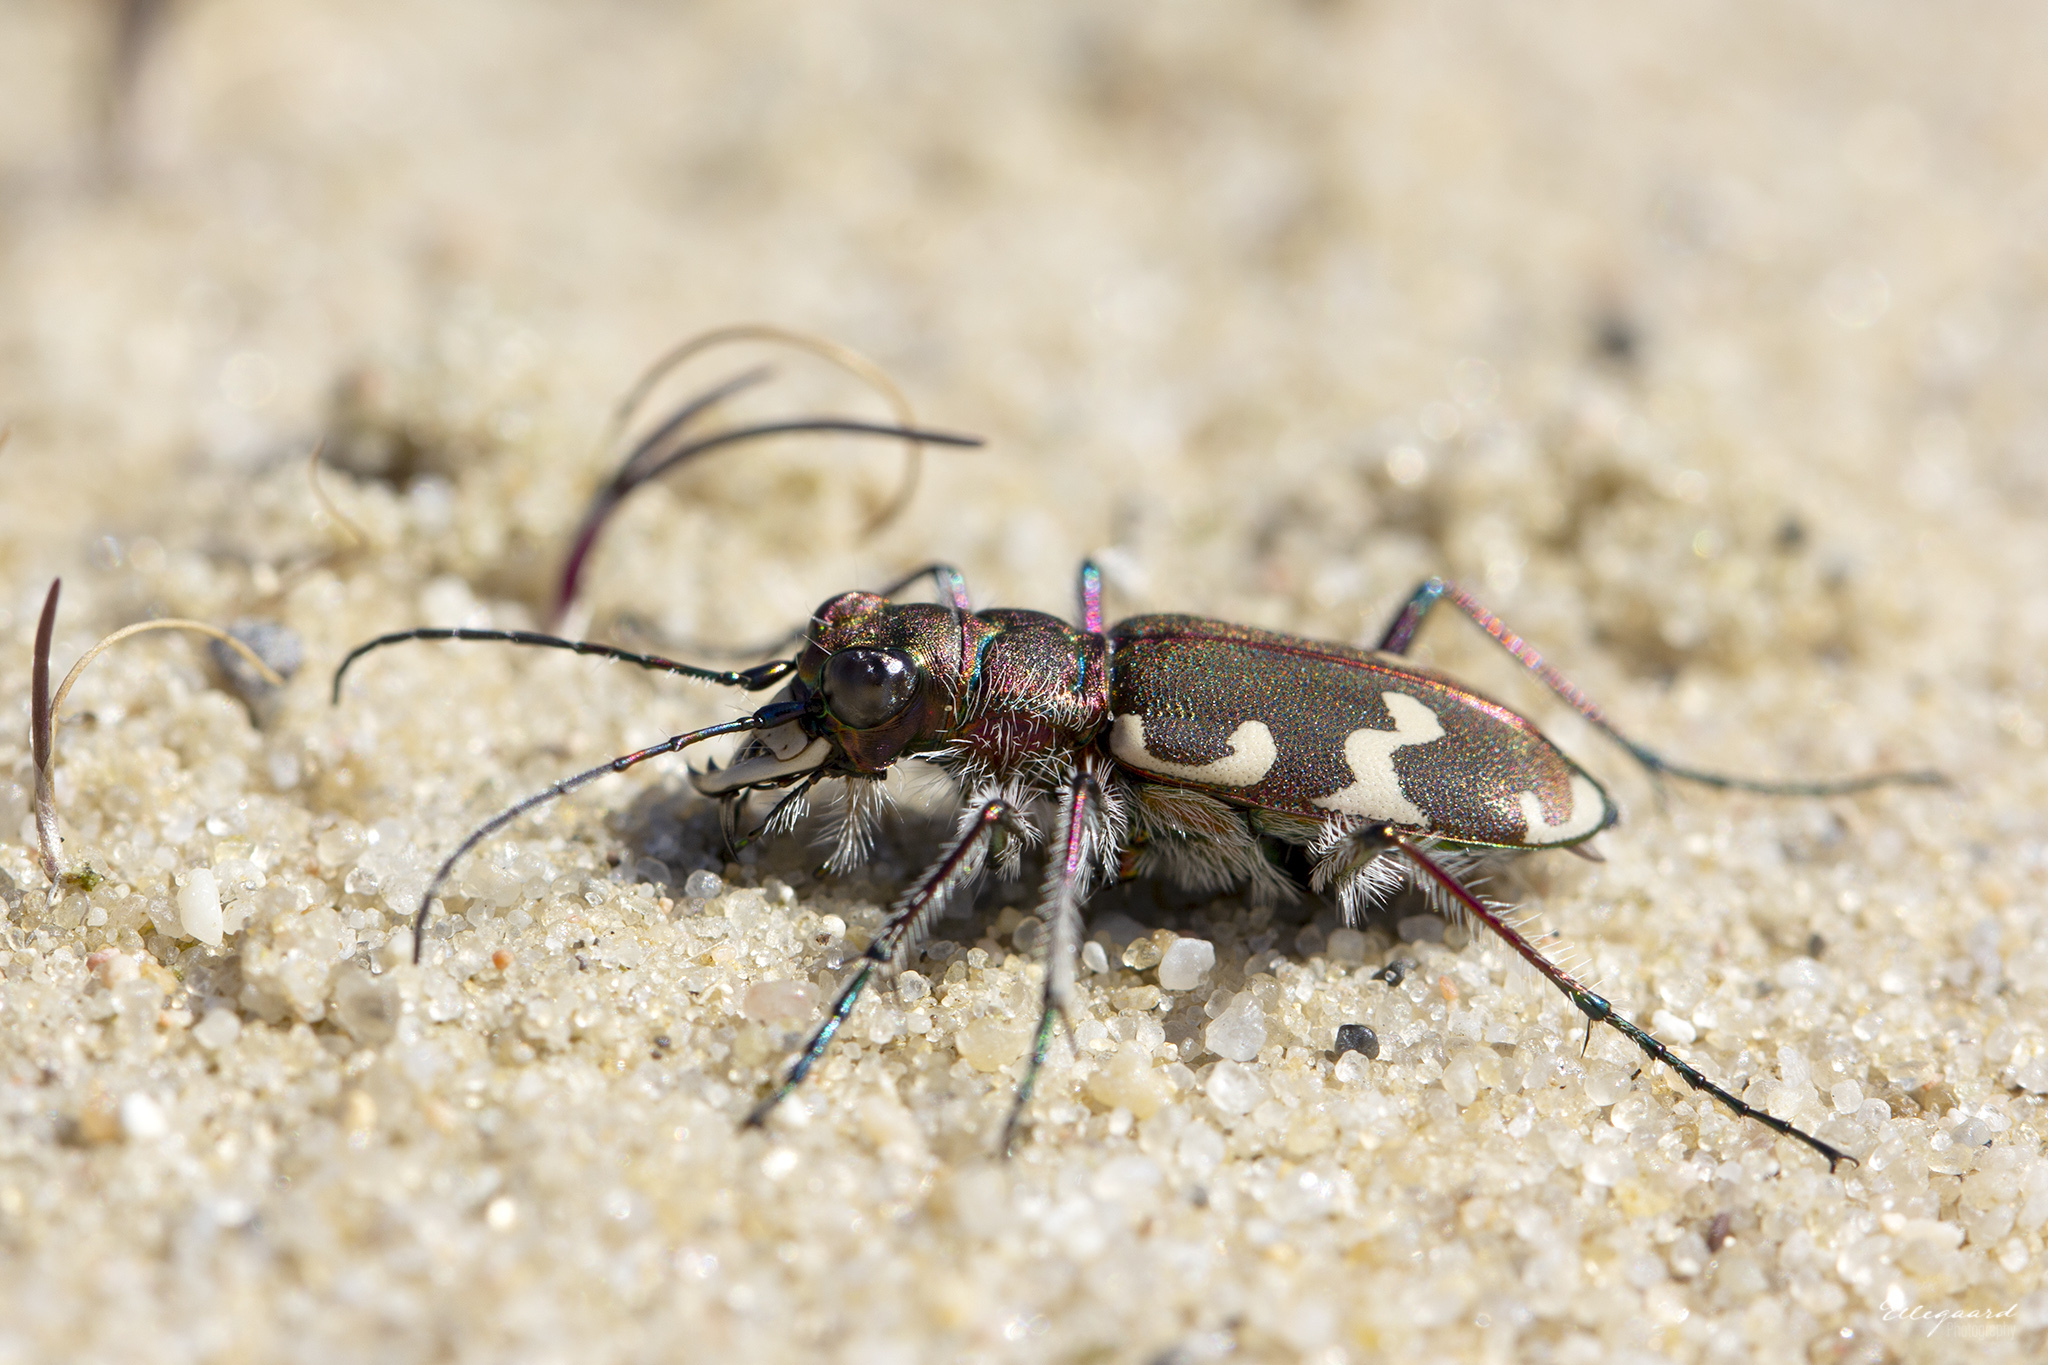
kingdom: Animalia
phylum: Arthropoda
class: Insecta
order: Coleoptera
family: Carabidae
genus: Cicindela
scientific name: Cicindela hybrida
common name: Northern dune tiger beetle
